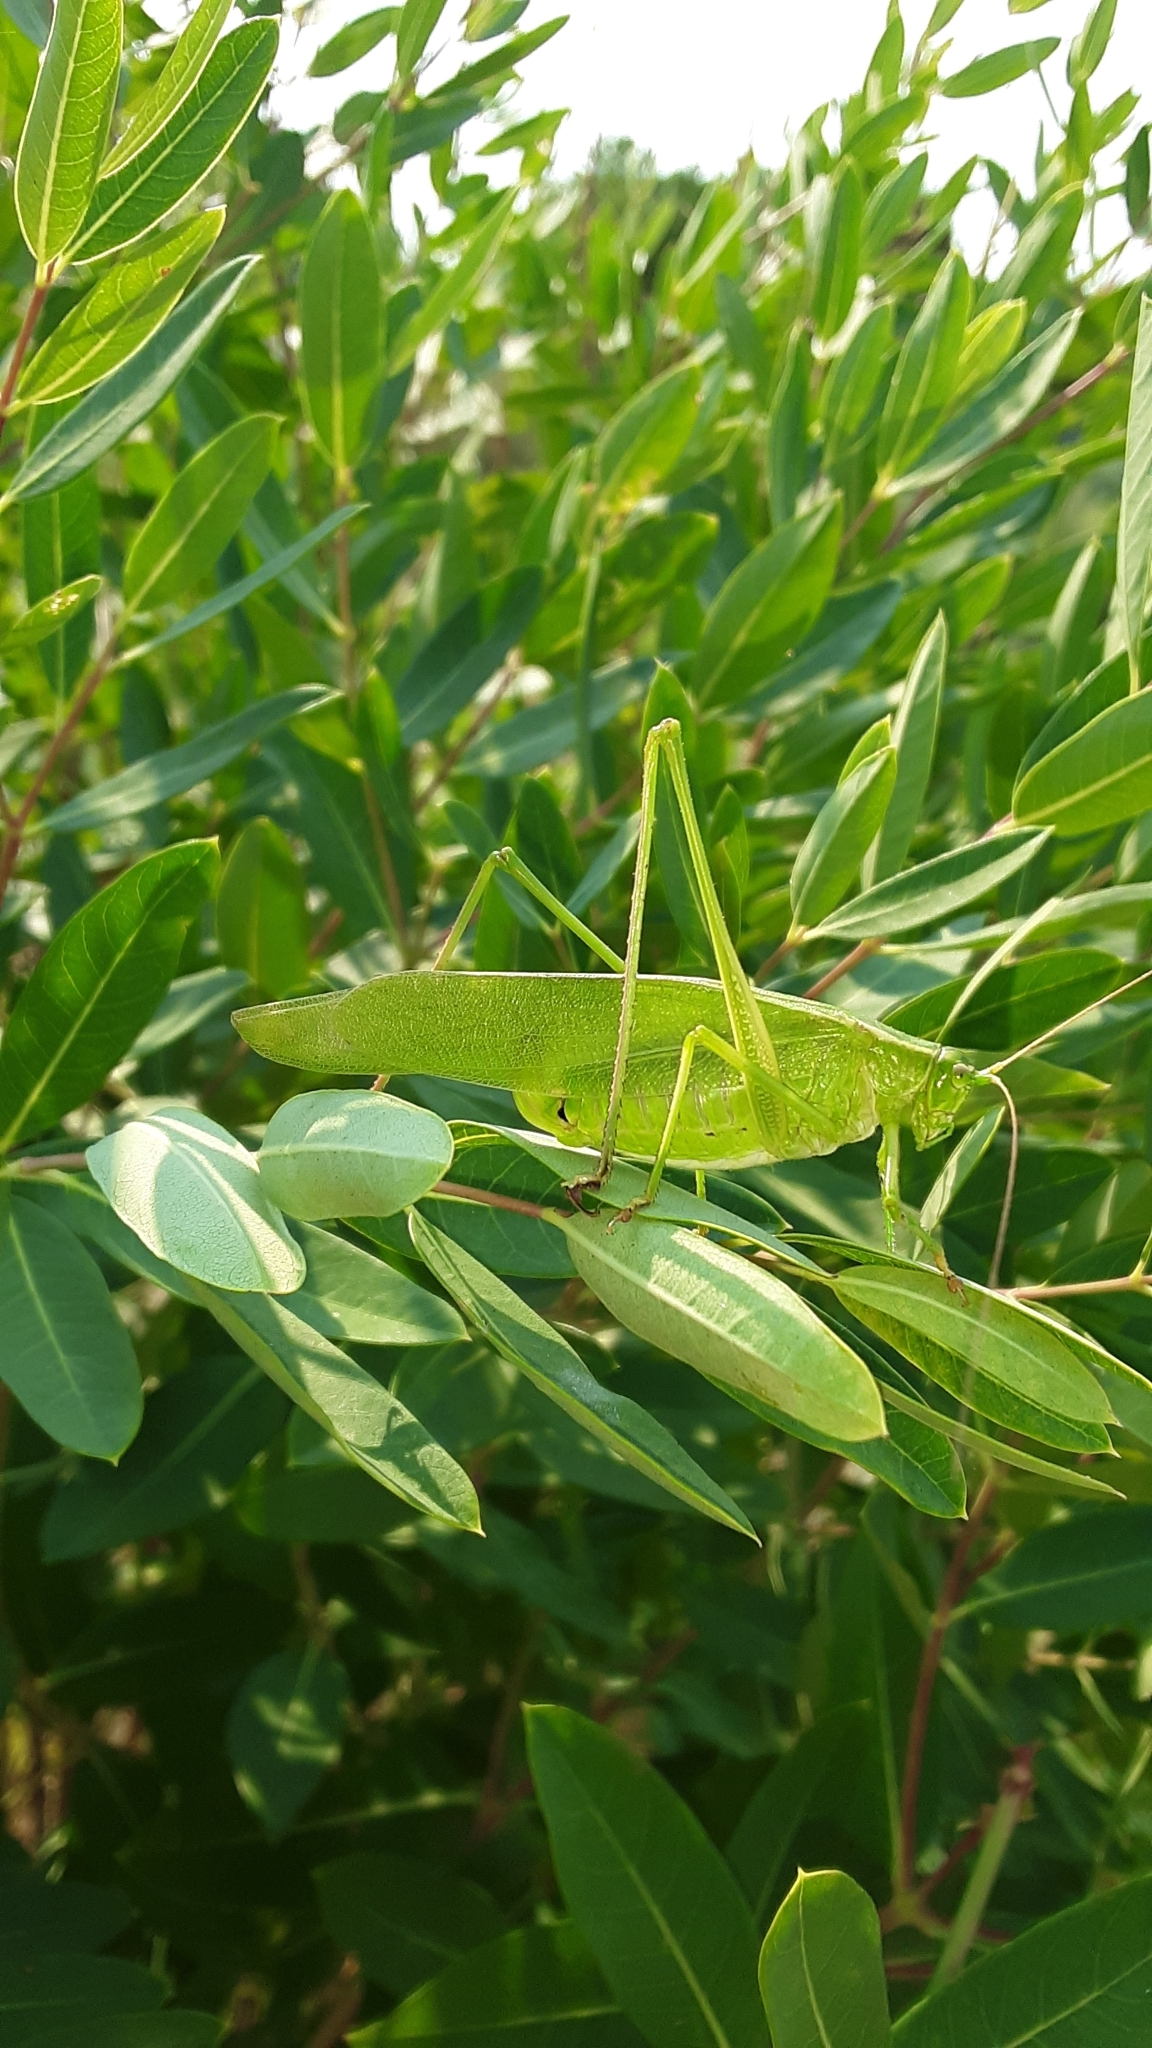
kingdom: Animalia
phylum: Arthropoda
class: Insecta
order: Orthoptera
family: Tettigoniidae
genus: Scudderia
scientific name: Scudderia
